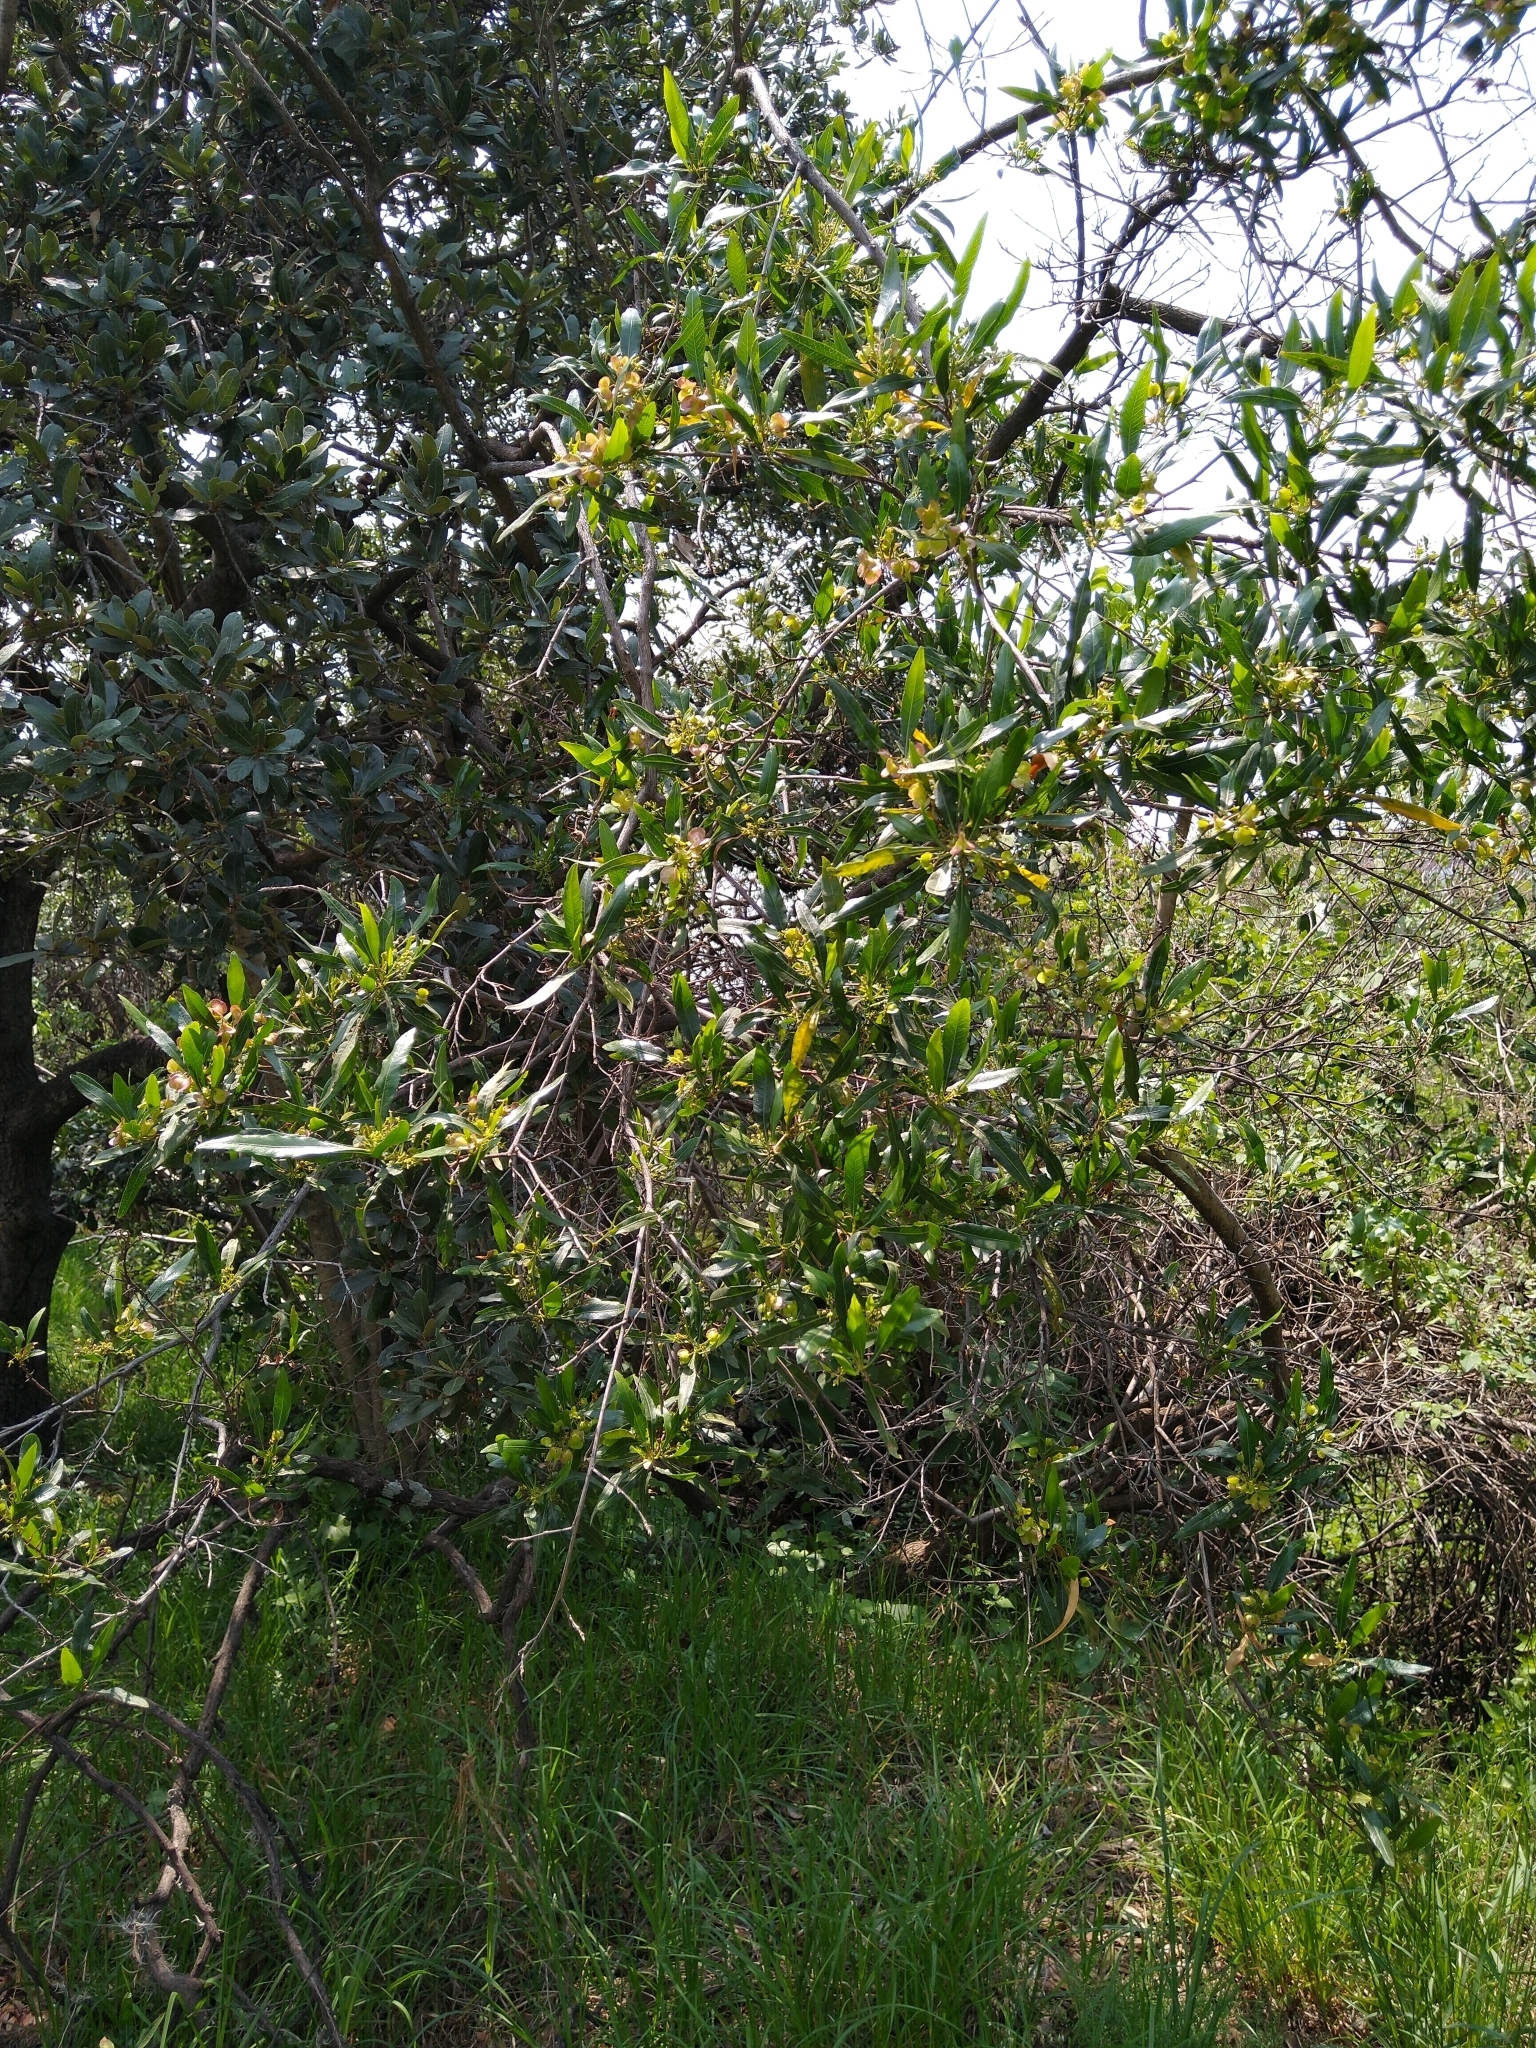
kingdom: Plantae
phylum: Tracheophyta
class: Magnoliopsida
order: Sapindales
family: Sapindaceae
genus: Dodonaea
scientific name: Dodonaea viscosa
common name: Hopbush
